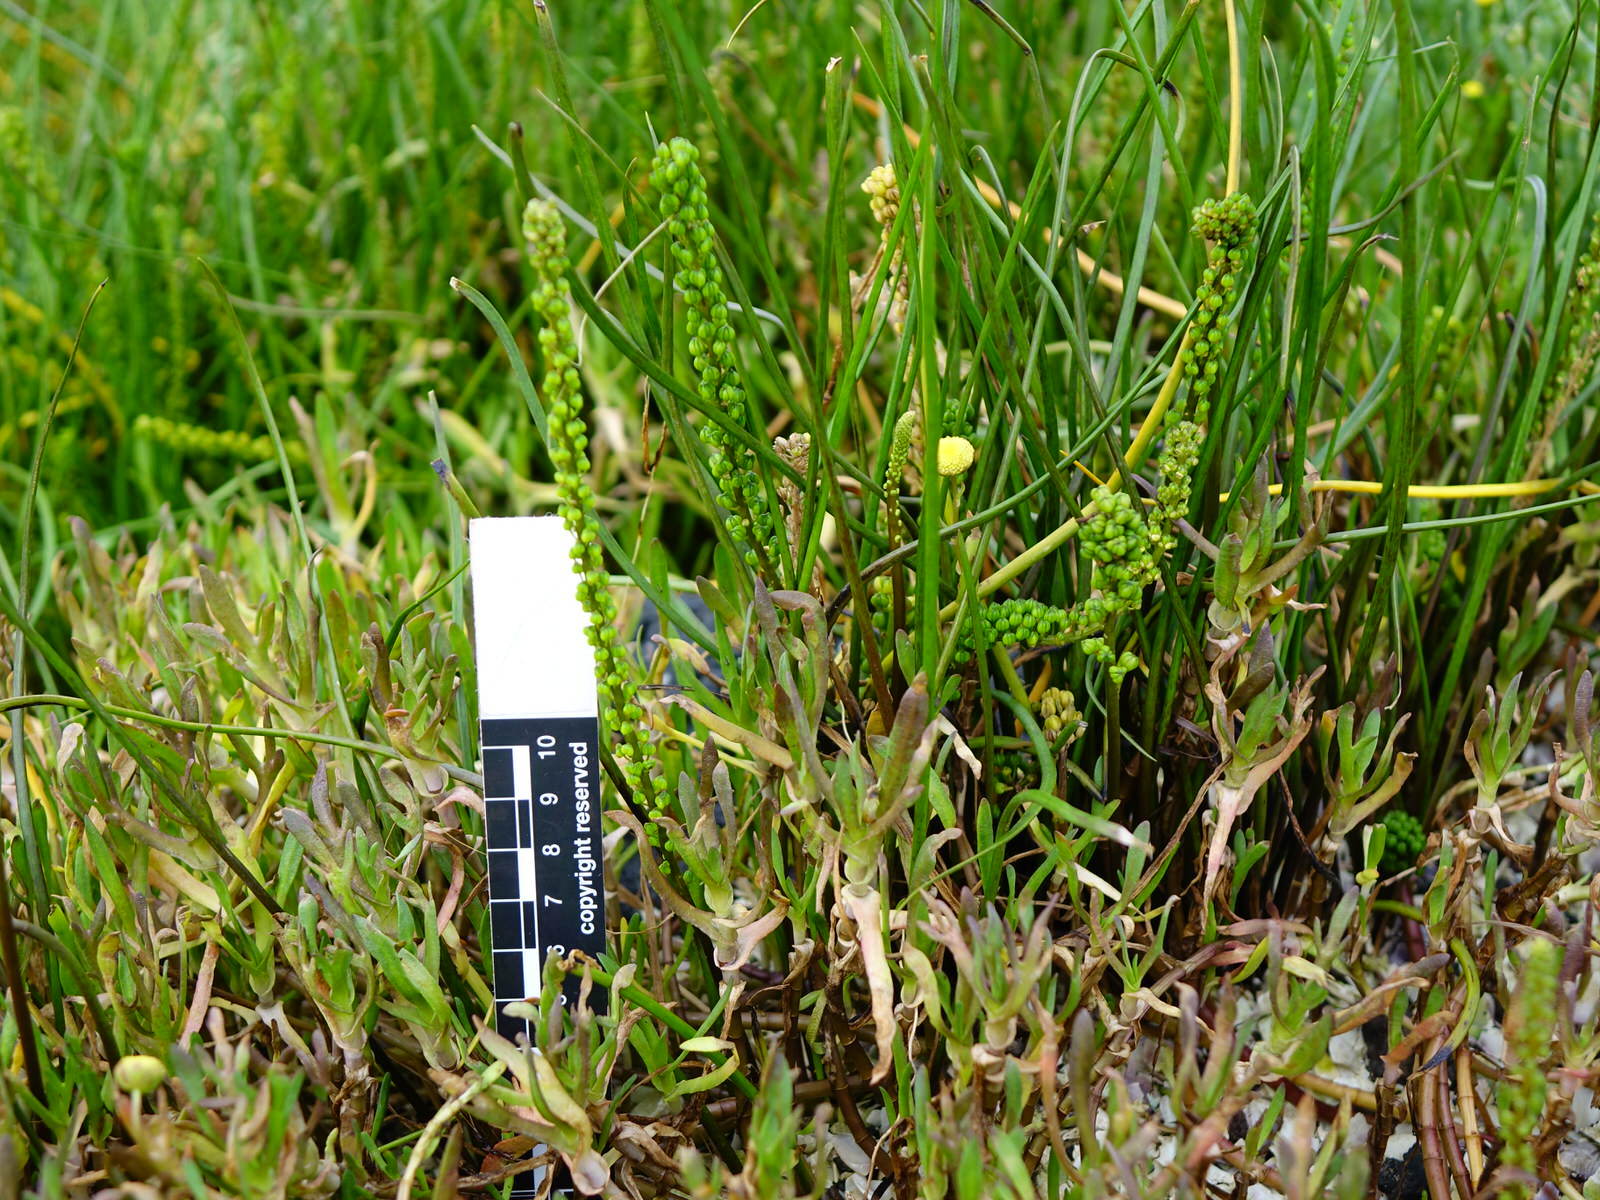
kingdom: Plantae
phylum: Tracheophyta
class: Liliopsida
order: Alismatales
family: Juncaginaceae
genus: Triglochin
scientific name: Triglochin striata
